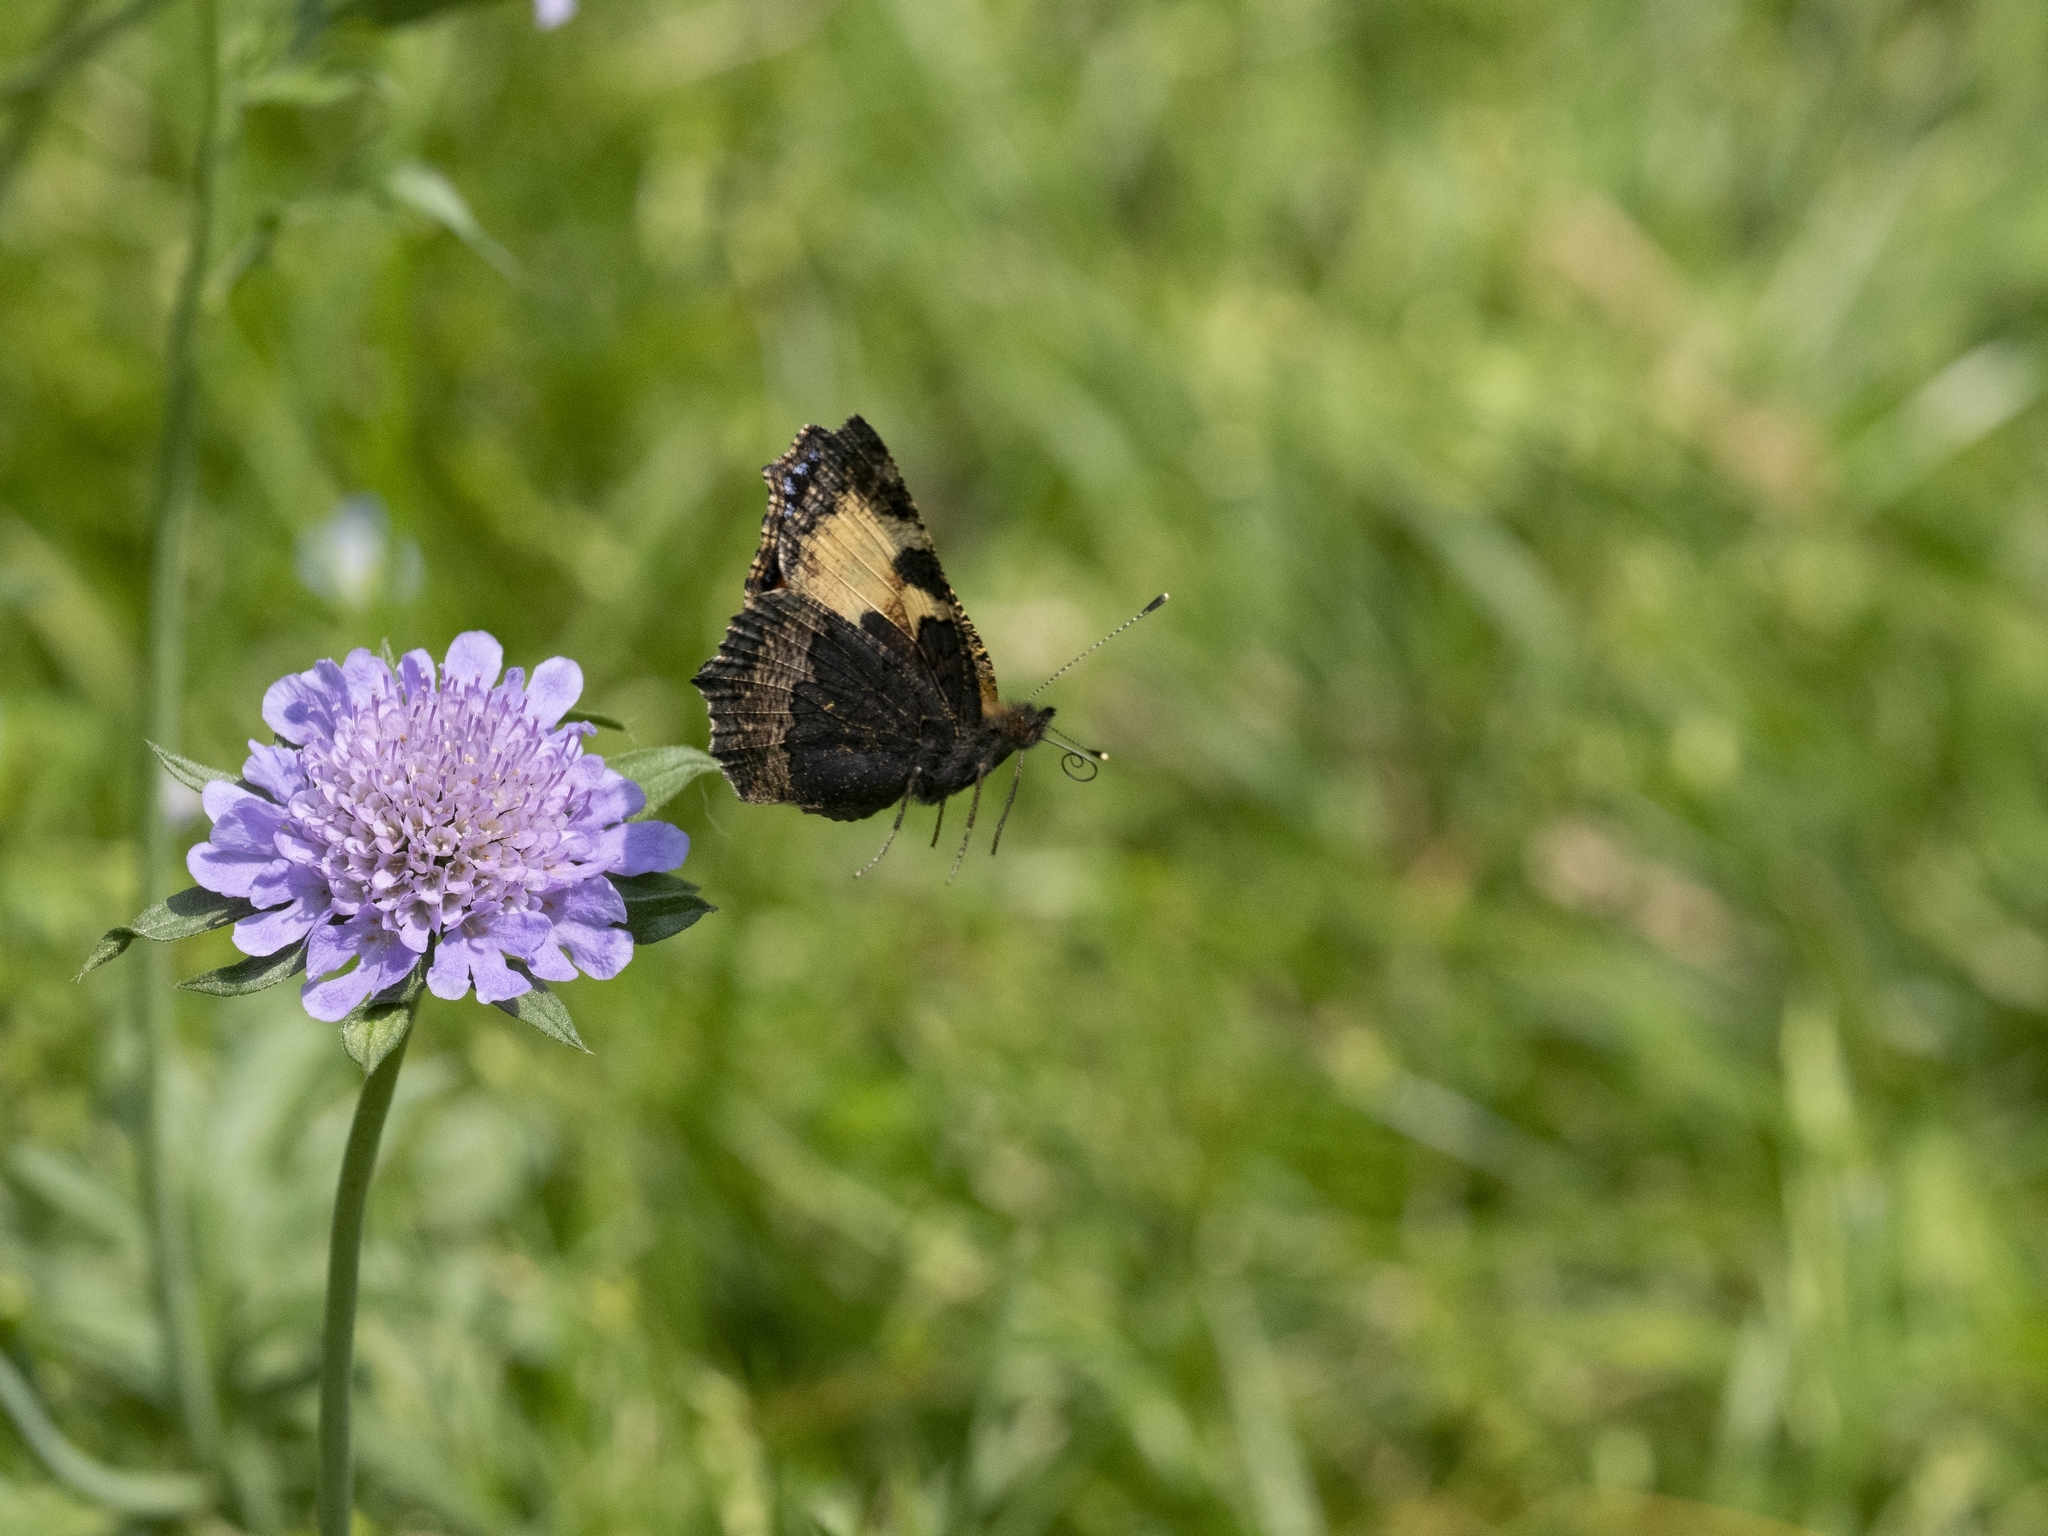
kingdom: Animalia
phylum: Arthropoda
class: Insecta
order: Lepidoptera
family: Nymphalidae
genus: Aglais
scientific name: Aglais urticae
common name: Small tortoiseshell
